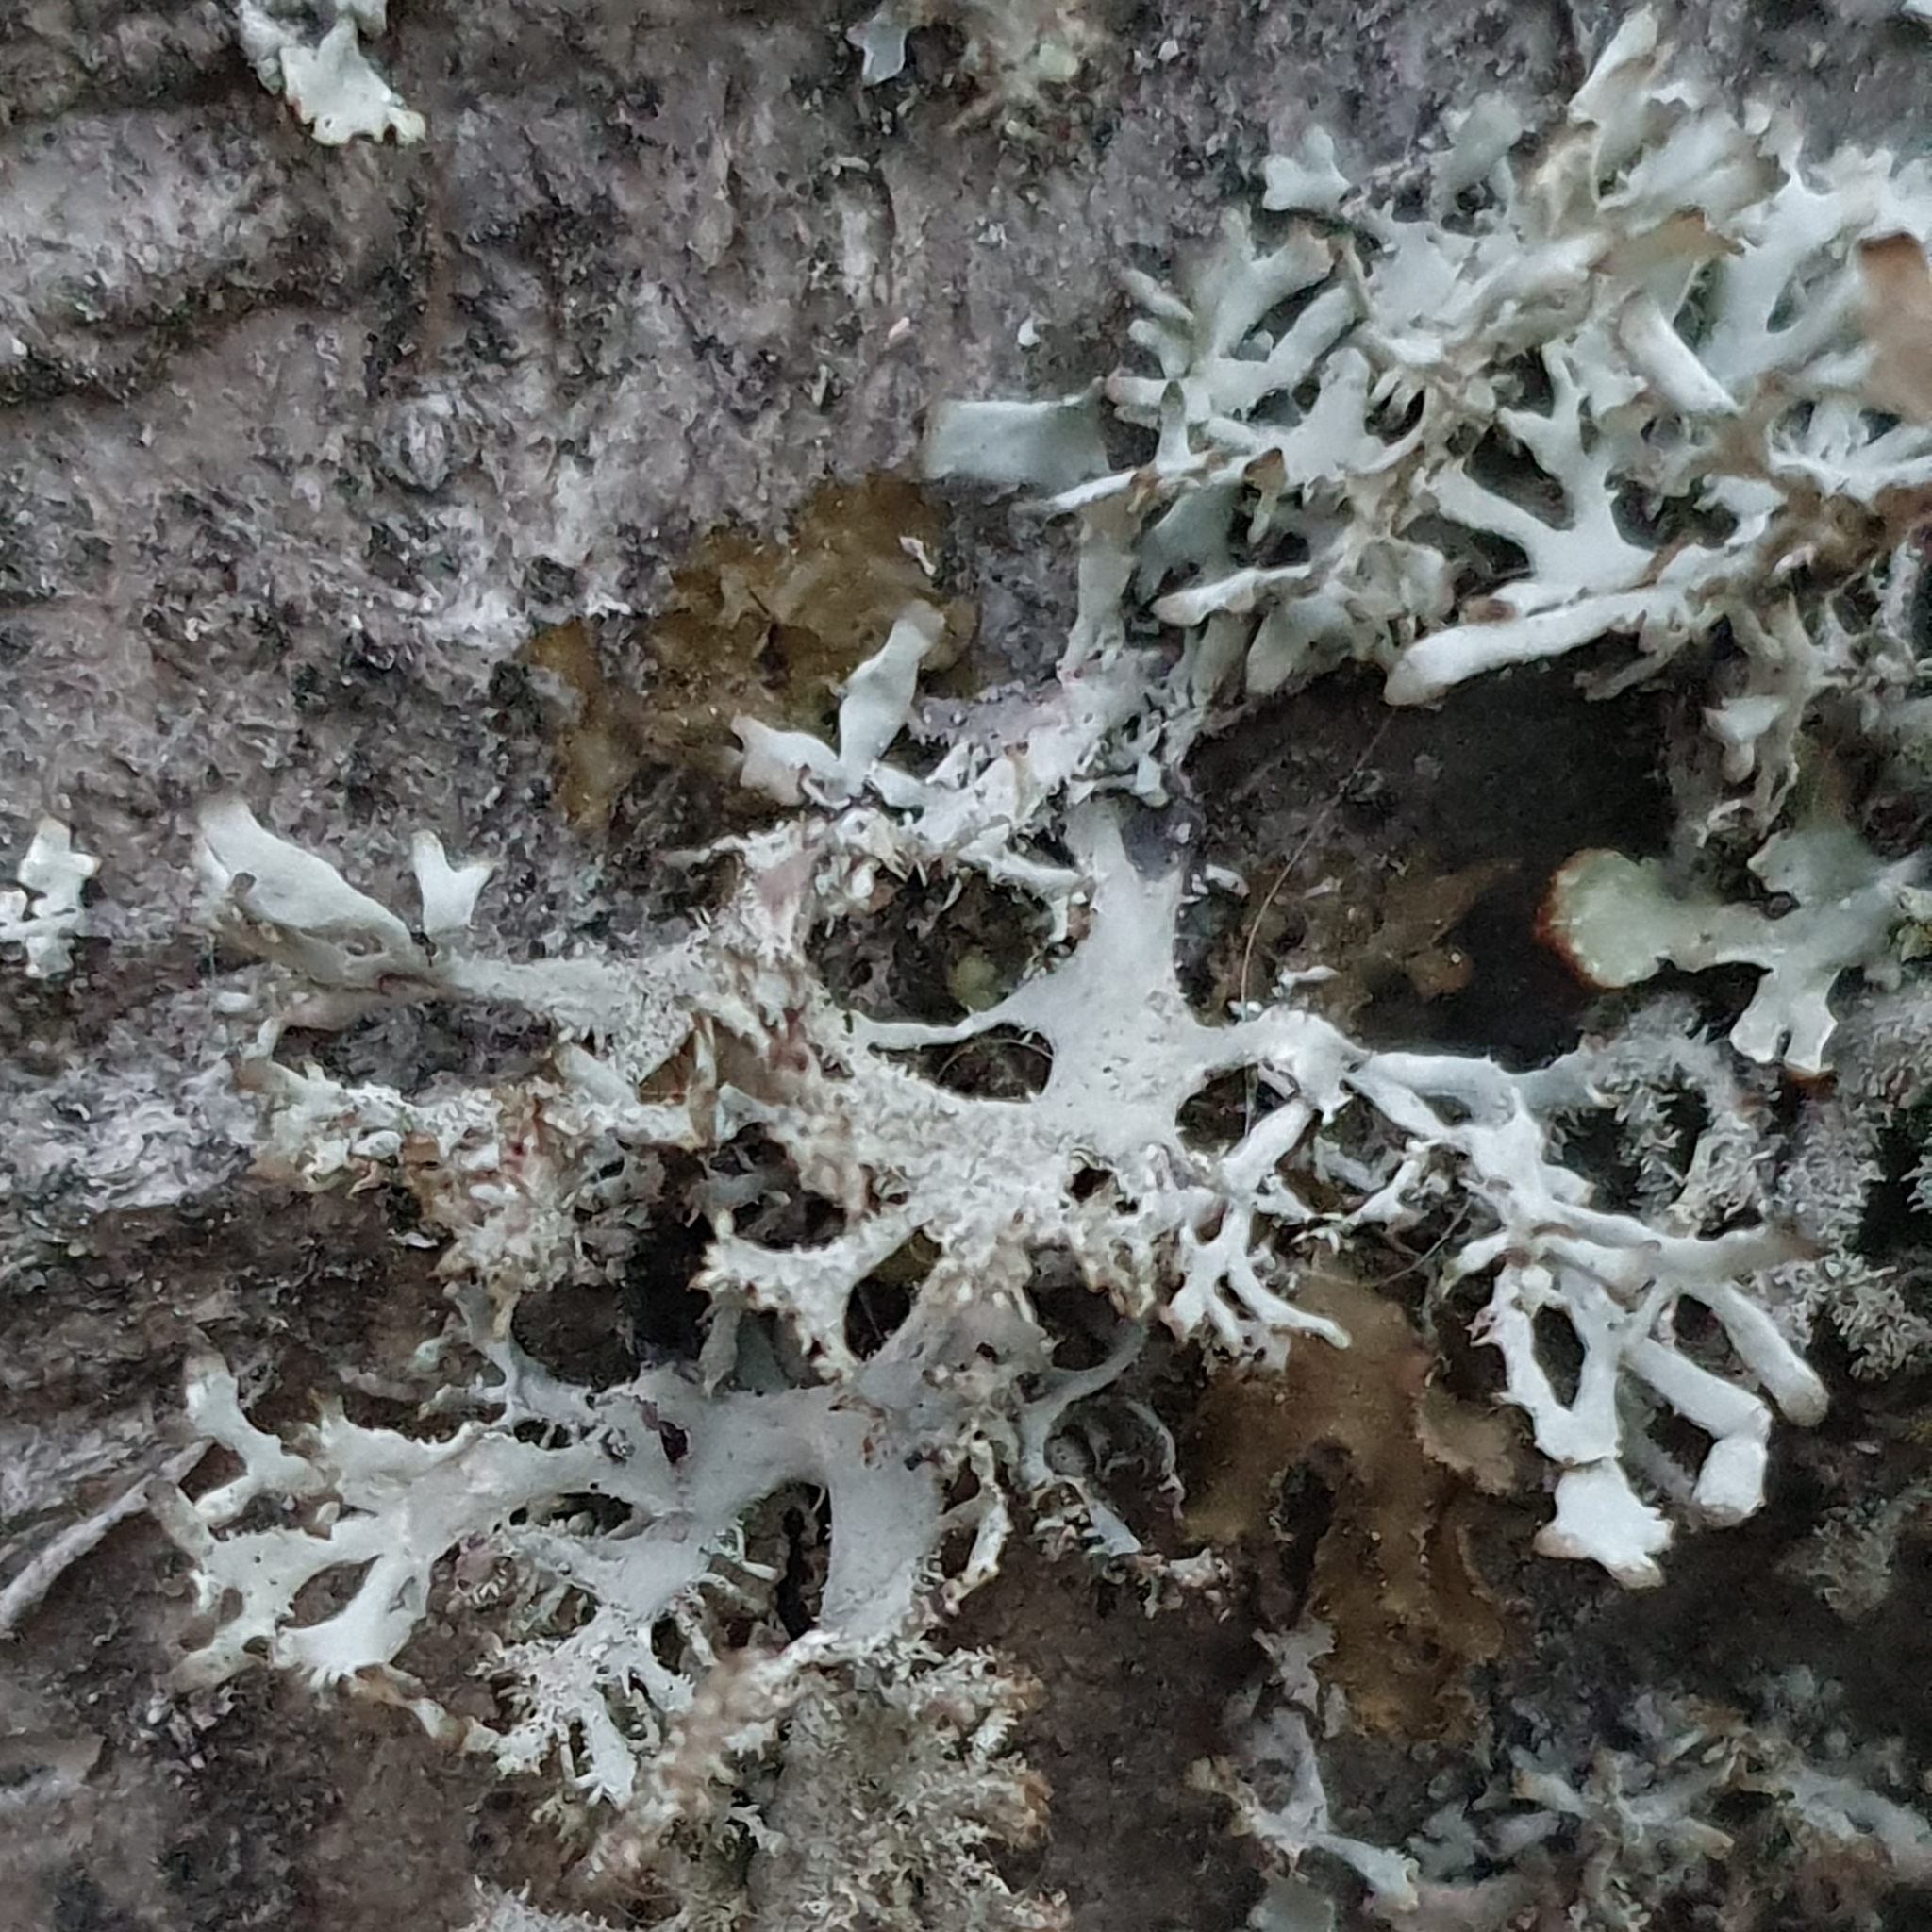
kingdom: Fungi
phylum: Ascomycota
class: Lecanoromycetes
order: Lecanorales
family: Parmeliaceae
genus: Pseudevernia
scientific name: Pseudevernia furfuracea
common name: Tree moss
